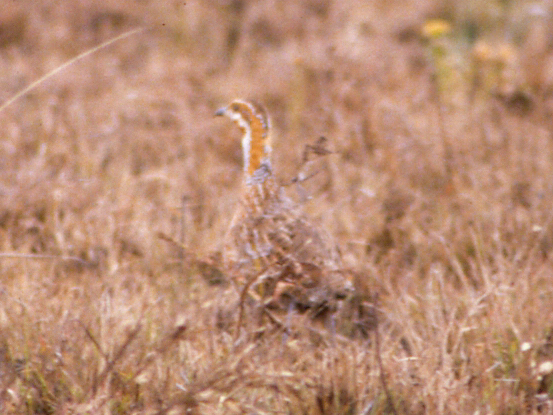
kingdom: Animalia
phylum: Chordata
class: Aves
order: Galliformes
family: Phasianidae
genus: Scleroptila
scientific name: Scleroptila levaillantii
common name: Red-winged francolin
